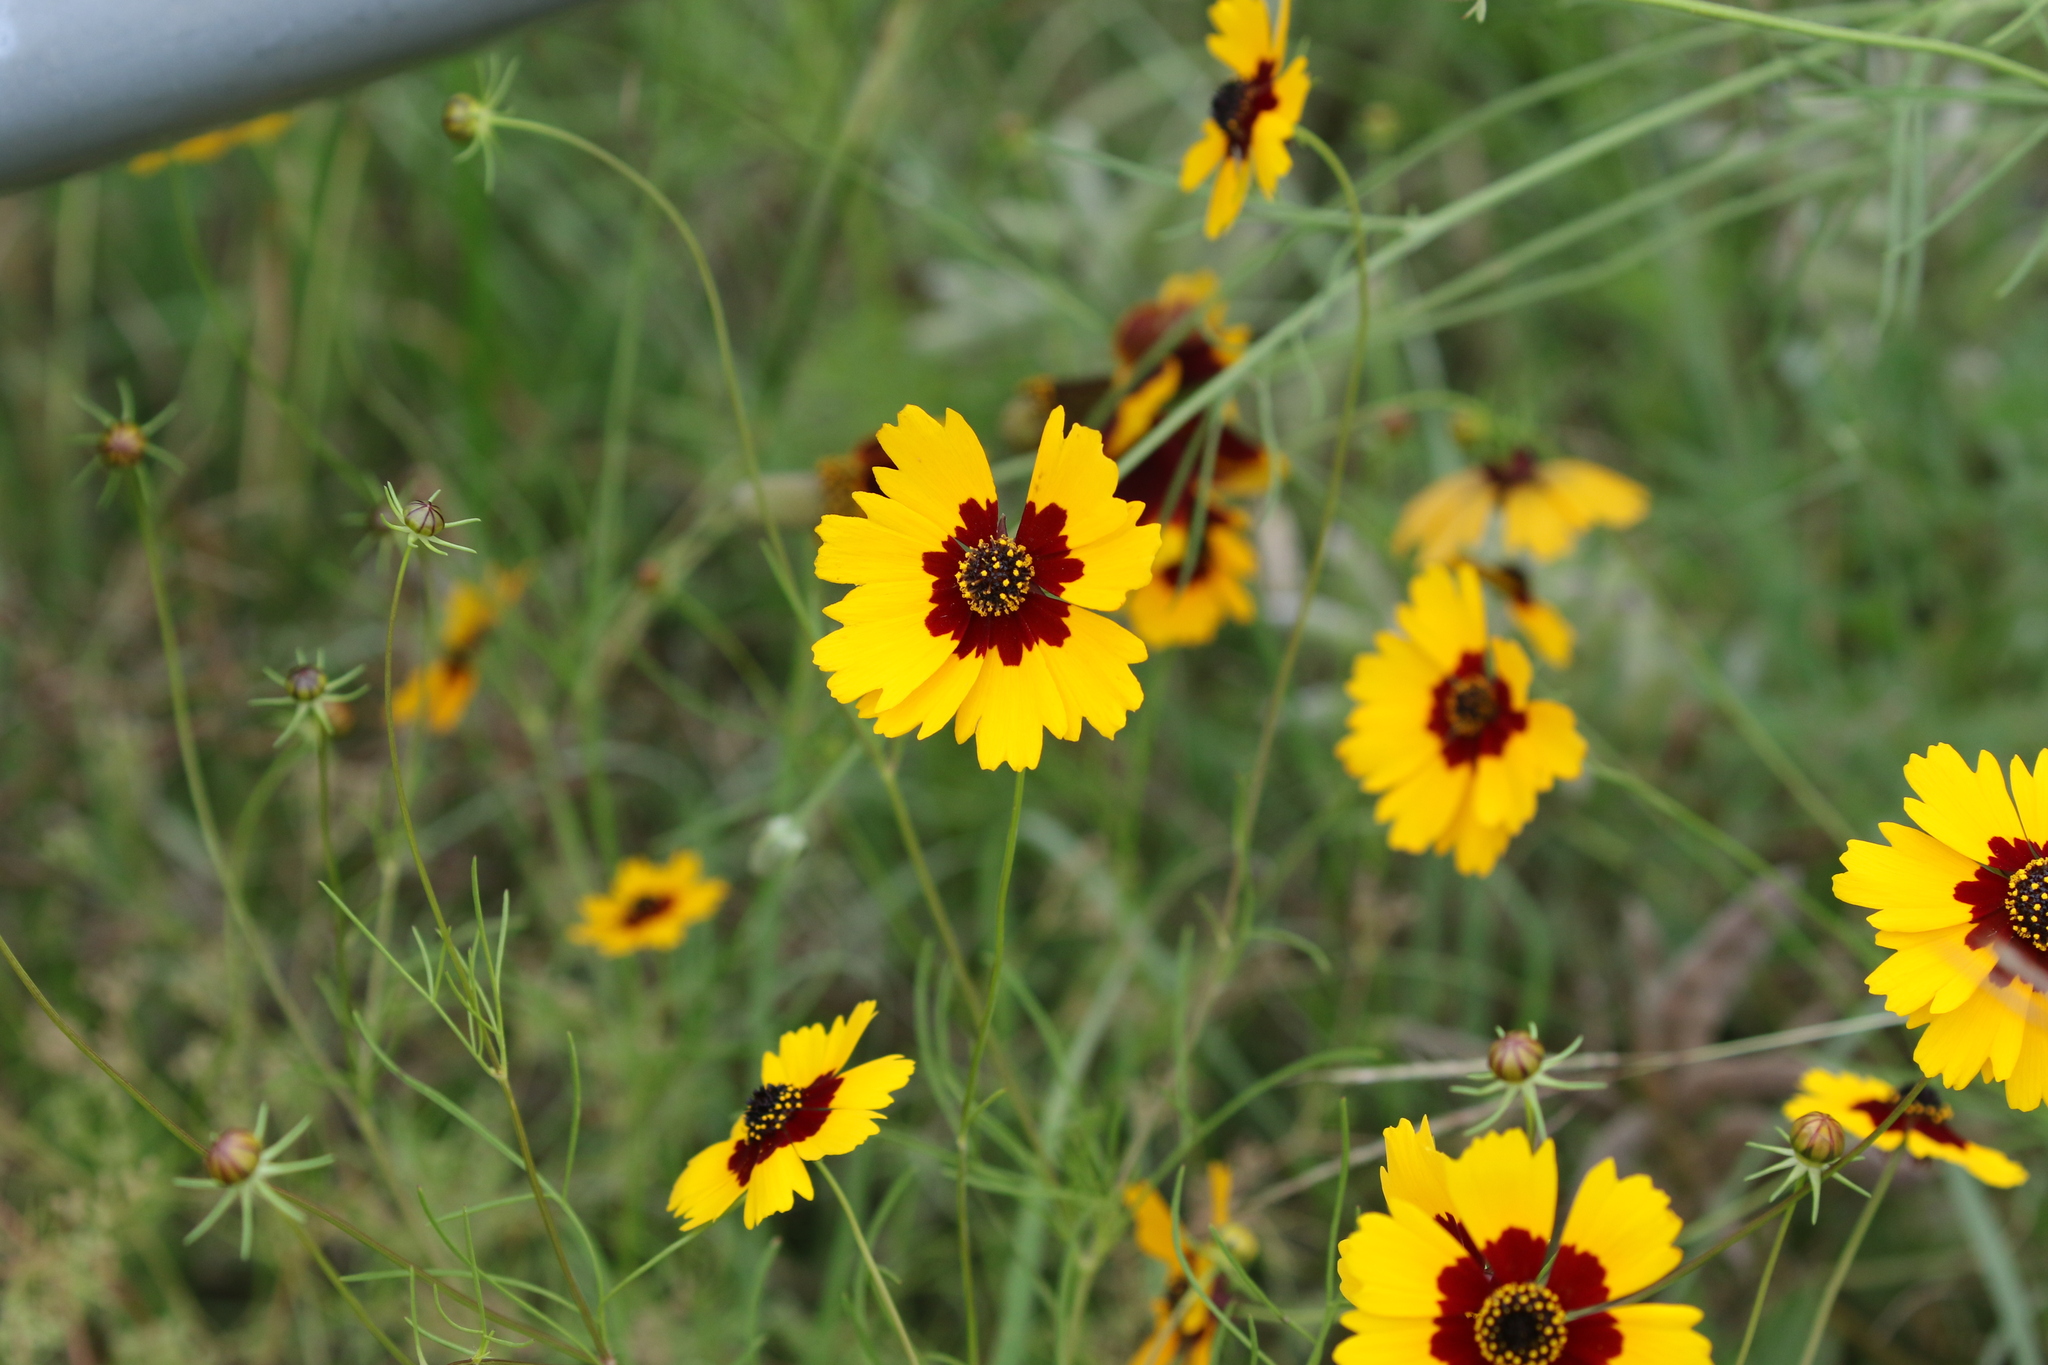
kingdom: Plantae
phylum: Tracheophyta
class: Magnoliopsida
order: Asterales
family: Asteraceae
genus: Coreopsis
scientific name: Coreopsis basalis
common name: Golden-mane coreopsis
